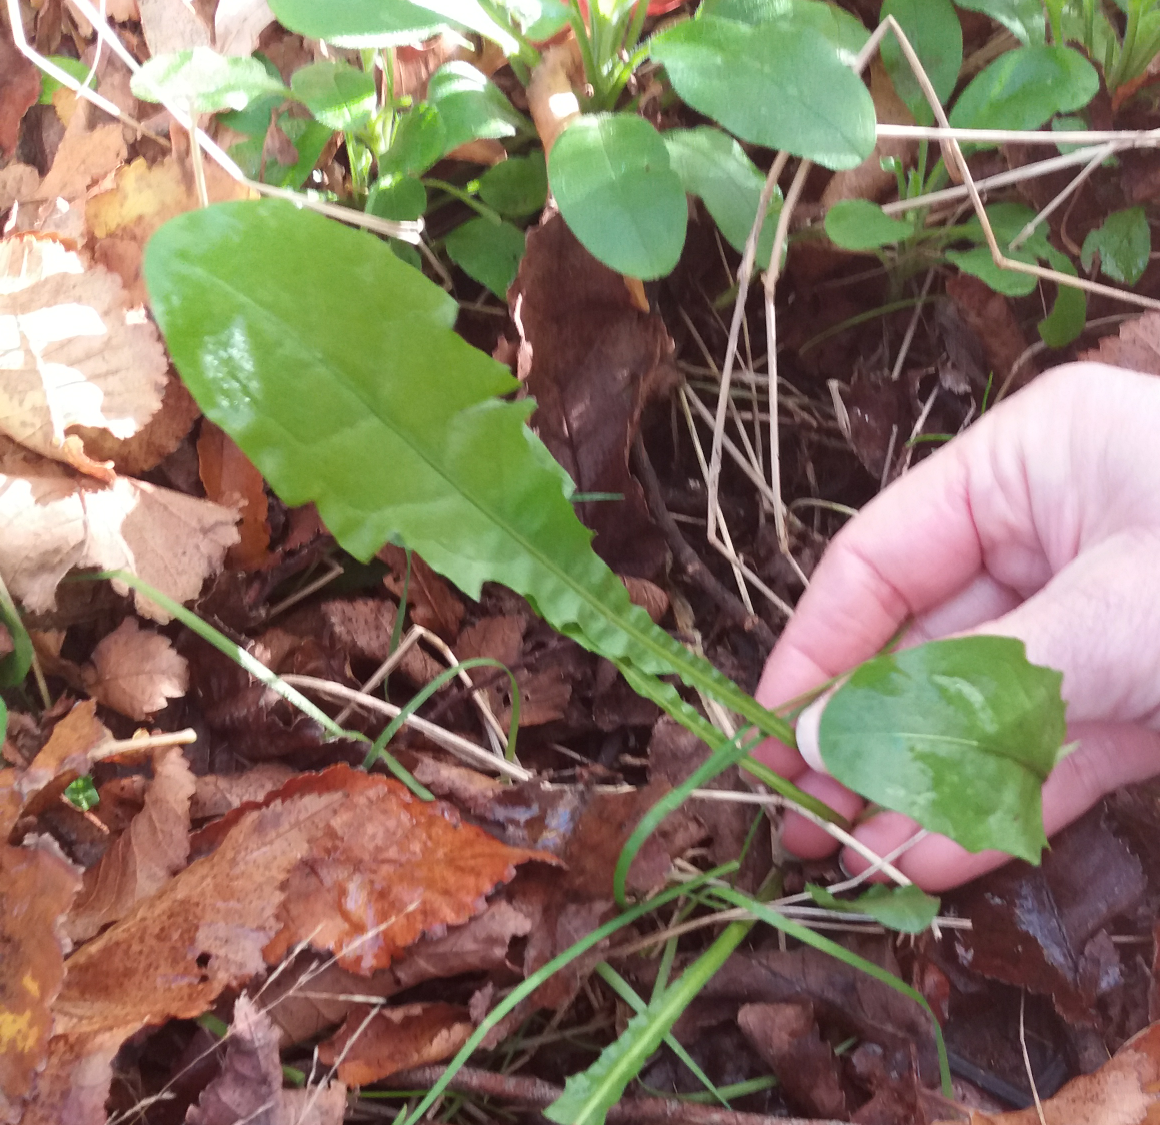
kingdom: Plantae
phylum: Tracheophyta
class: Magnoliopsida
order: Asterales
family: Asteraceae
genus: Taraxacum
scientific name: Taraxacum officinale
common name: Common dandelion
